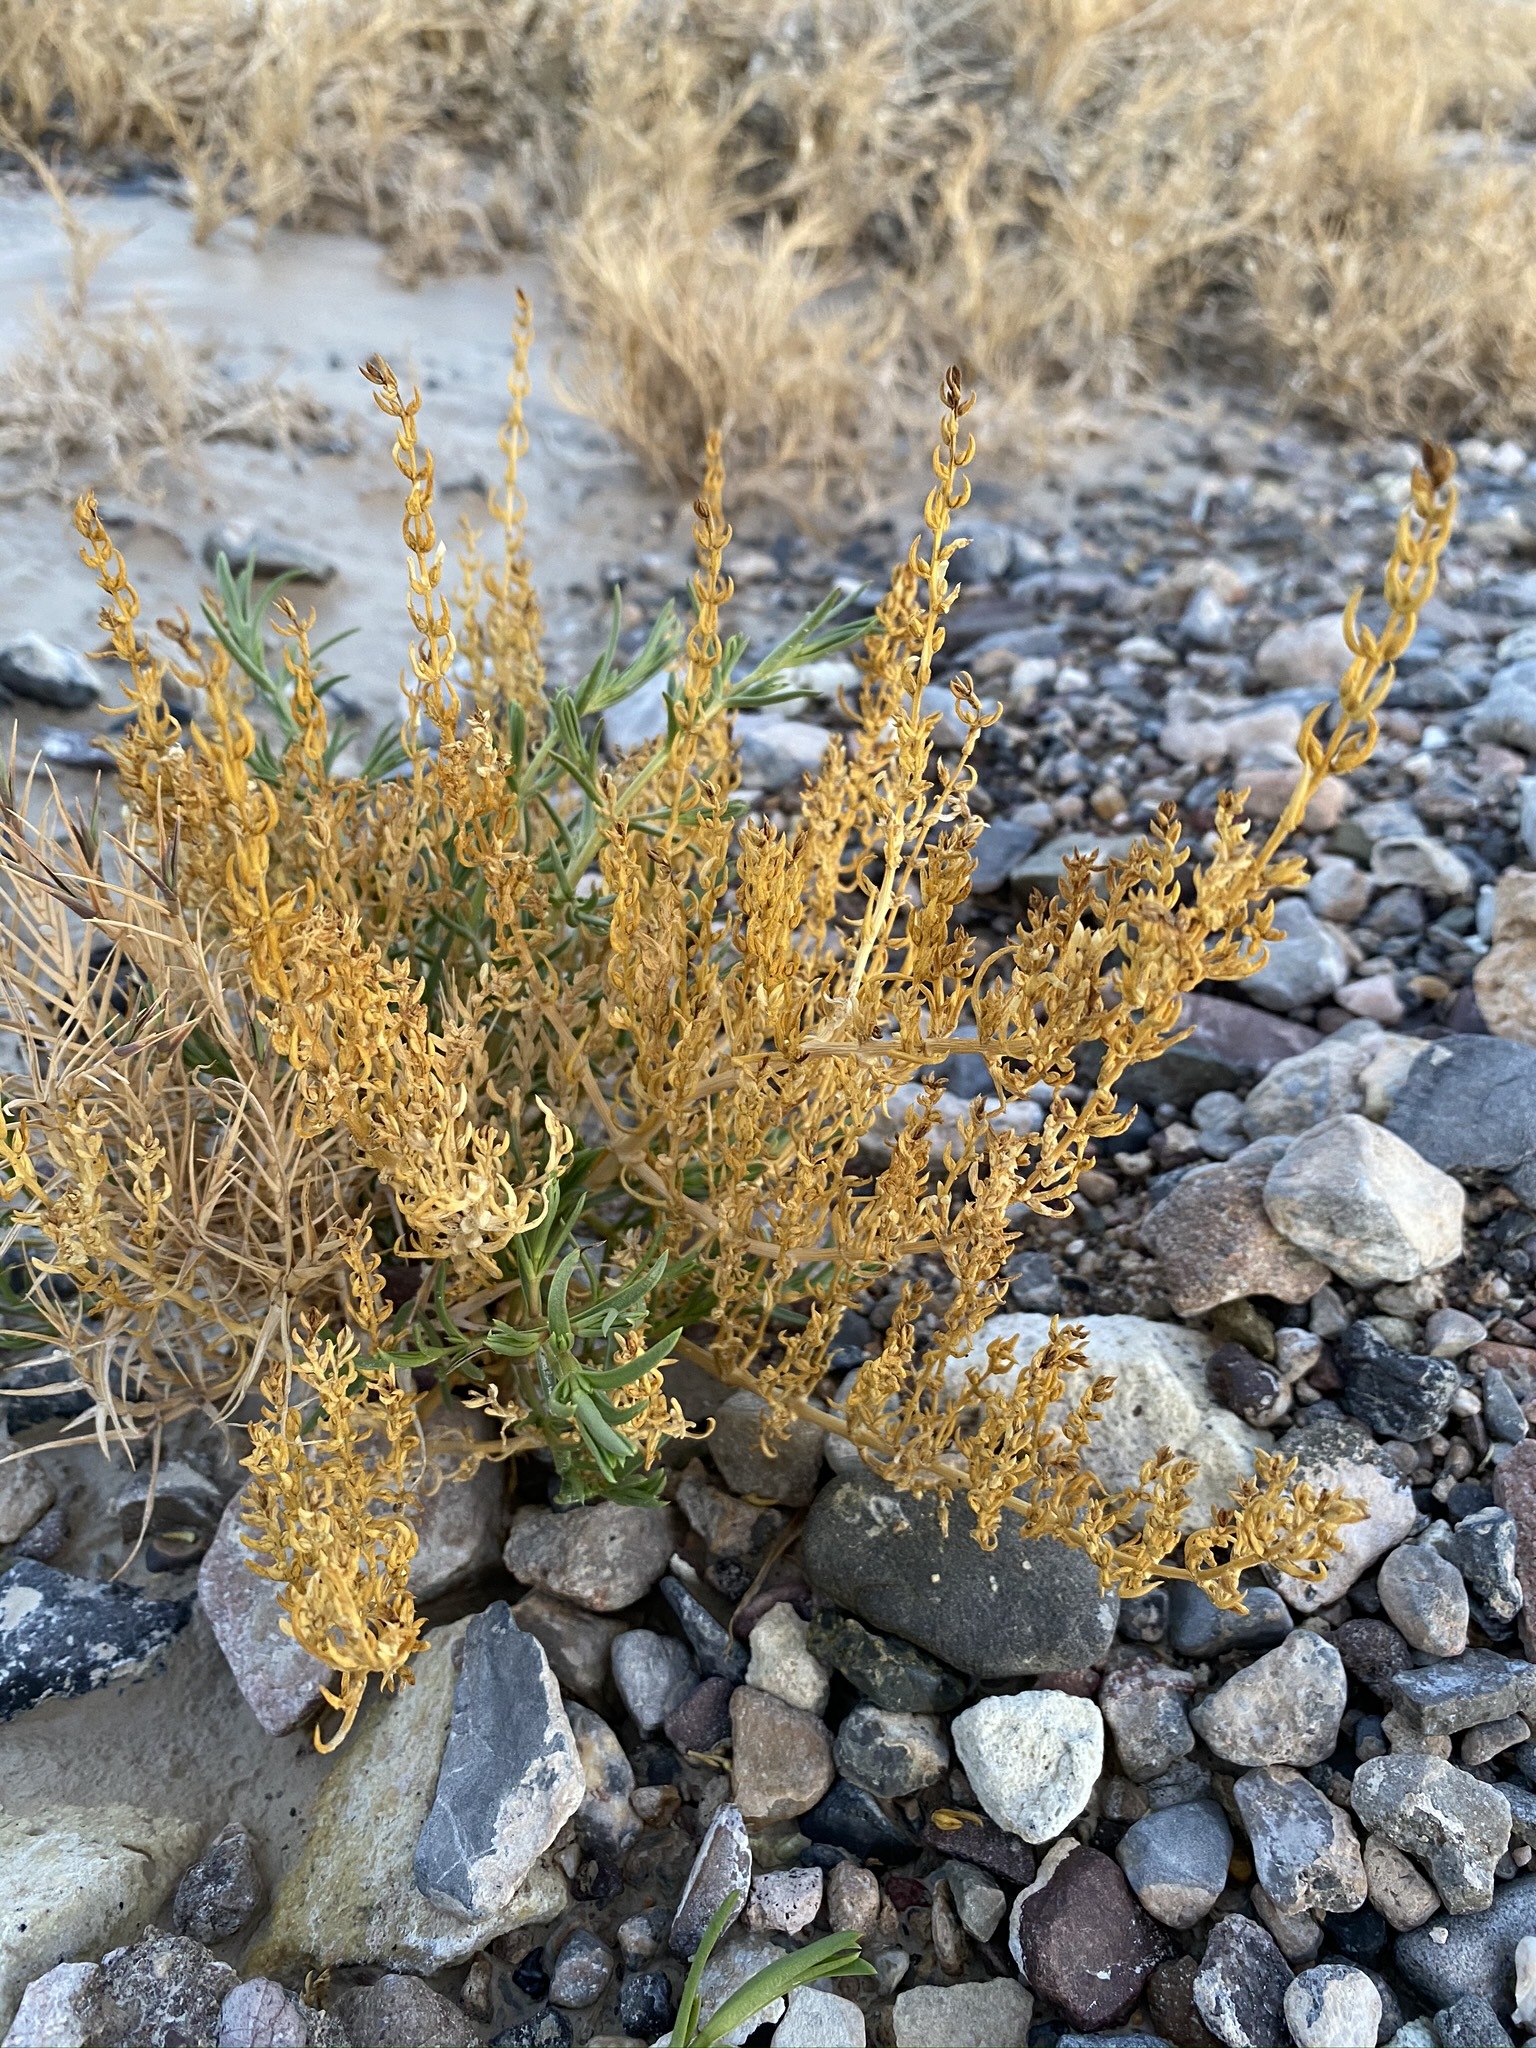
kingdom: Plantae
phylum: Tracheophyta
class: Magnoliopsida
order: Caryophyllales
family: Amaranthaceae
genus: Nitrophila
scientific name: Nitrophila occidentalis
